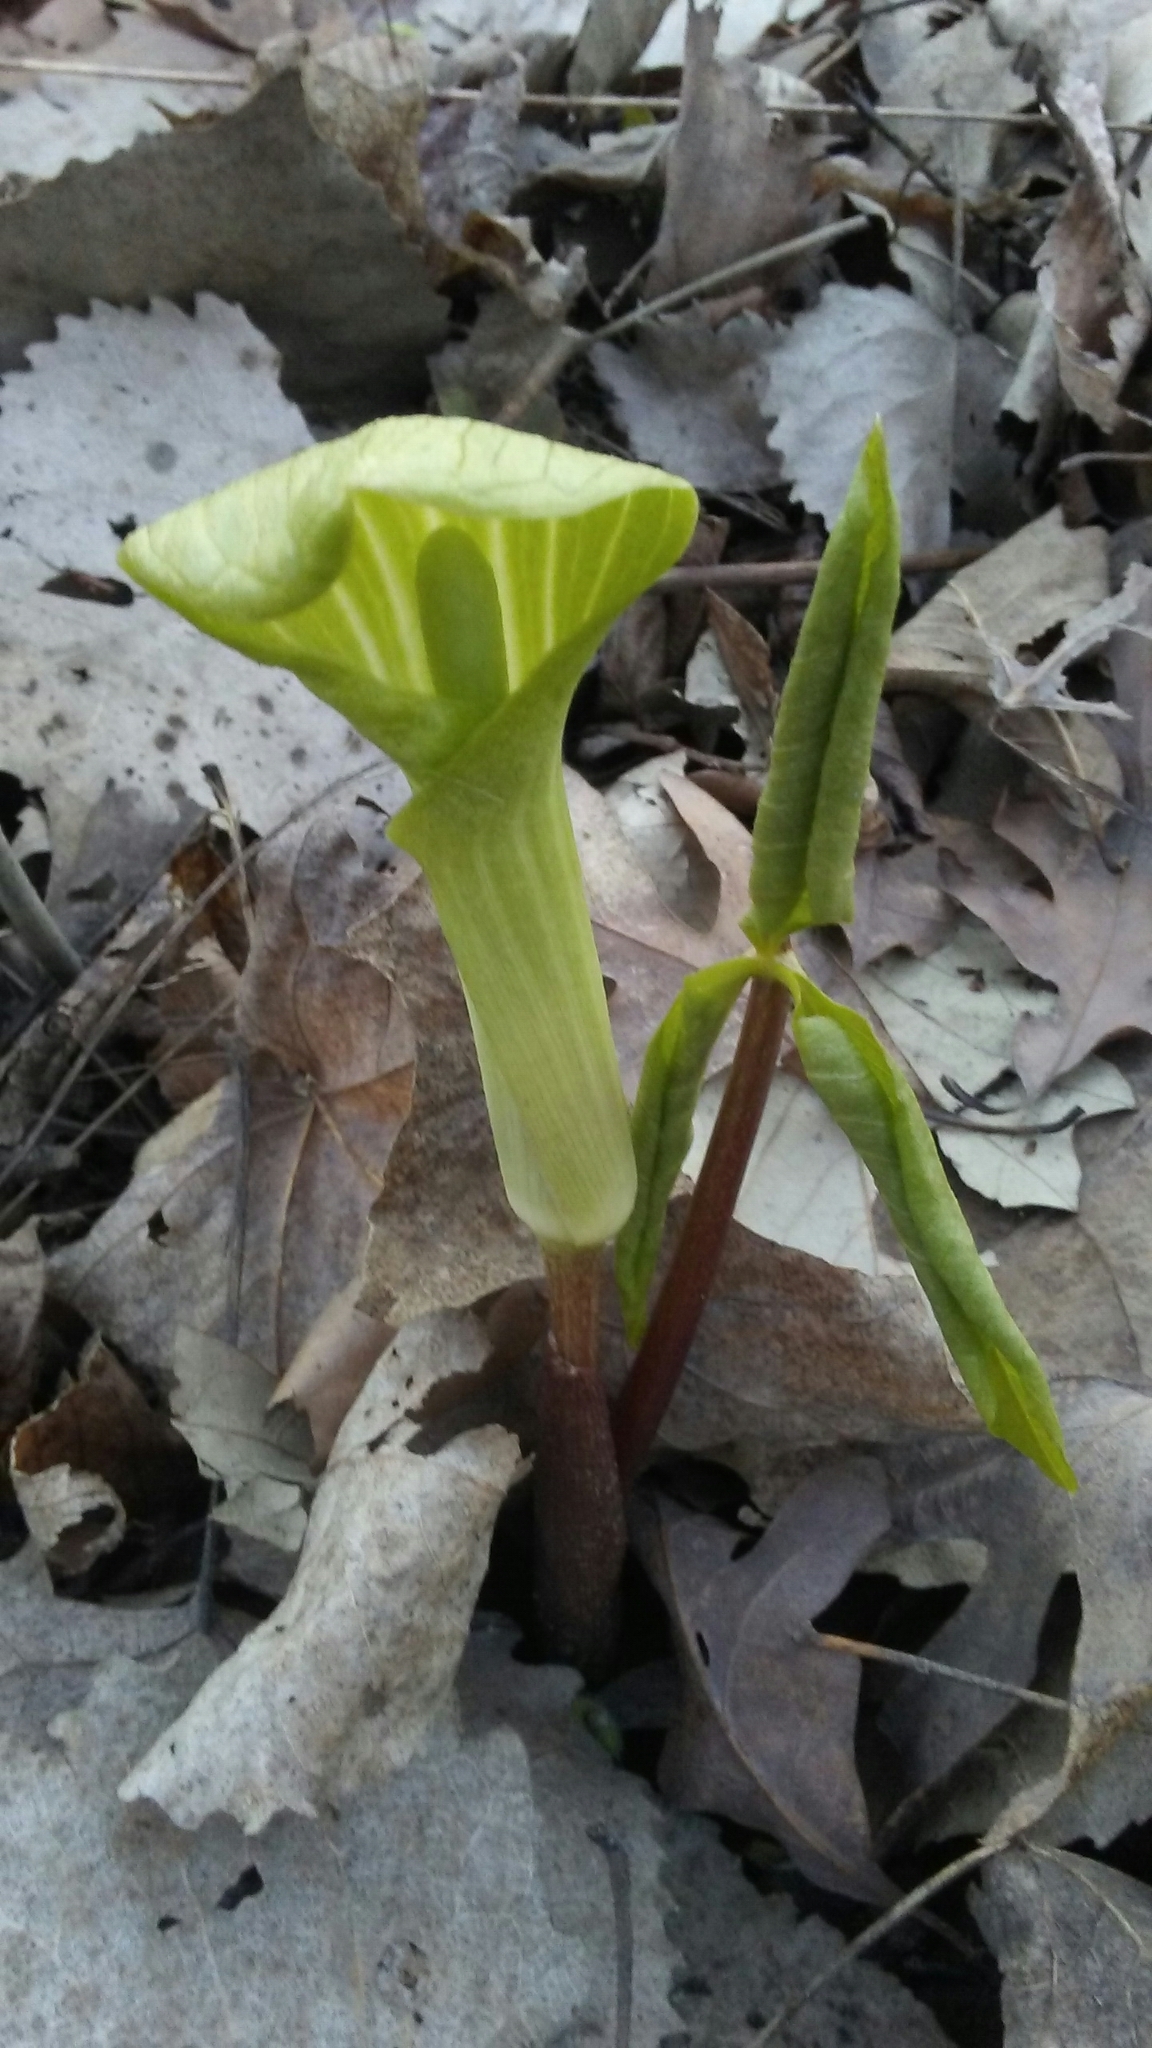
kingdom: Plantae
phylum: Tracheophyta
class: Liliopsida
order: Alismatales
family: Araceae
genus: Arisaema
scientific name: Arisaema triphyllum
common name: Jack-in-the-pulpit
